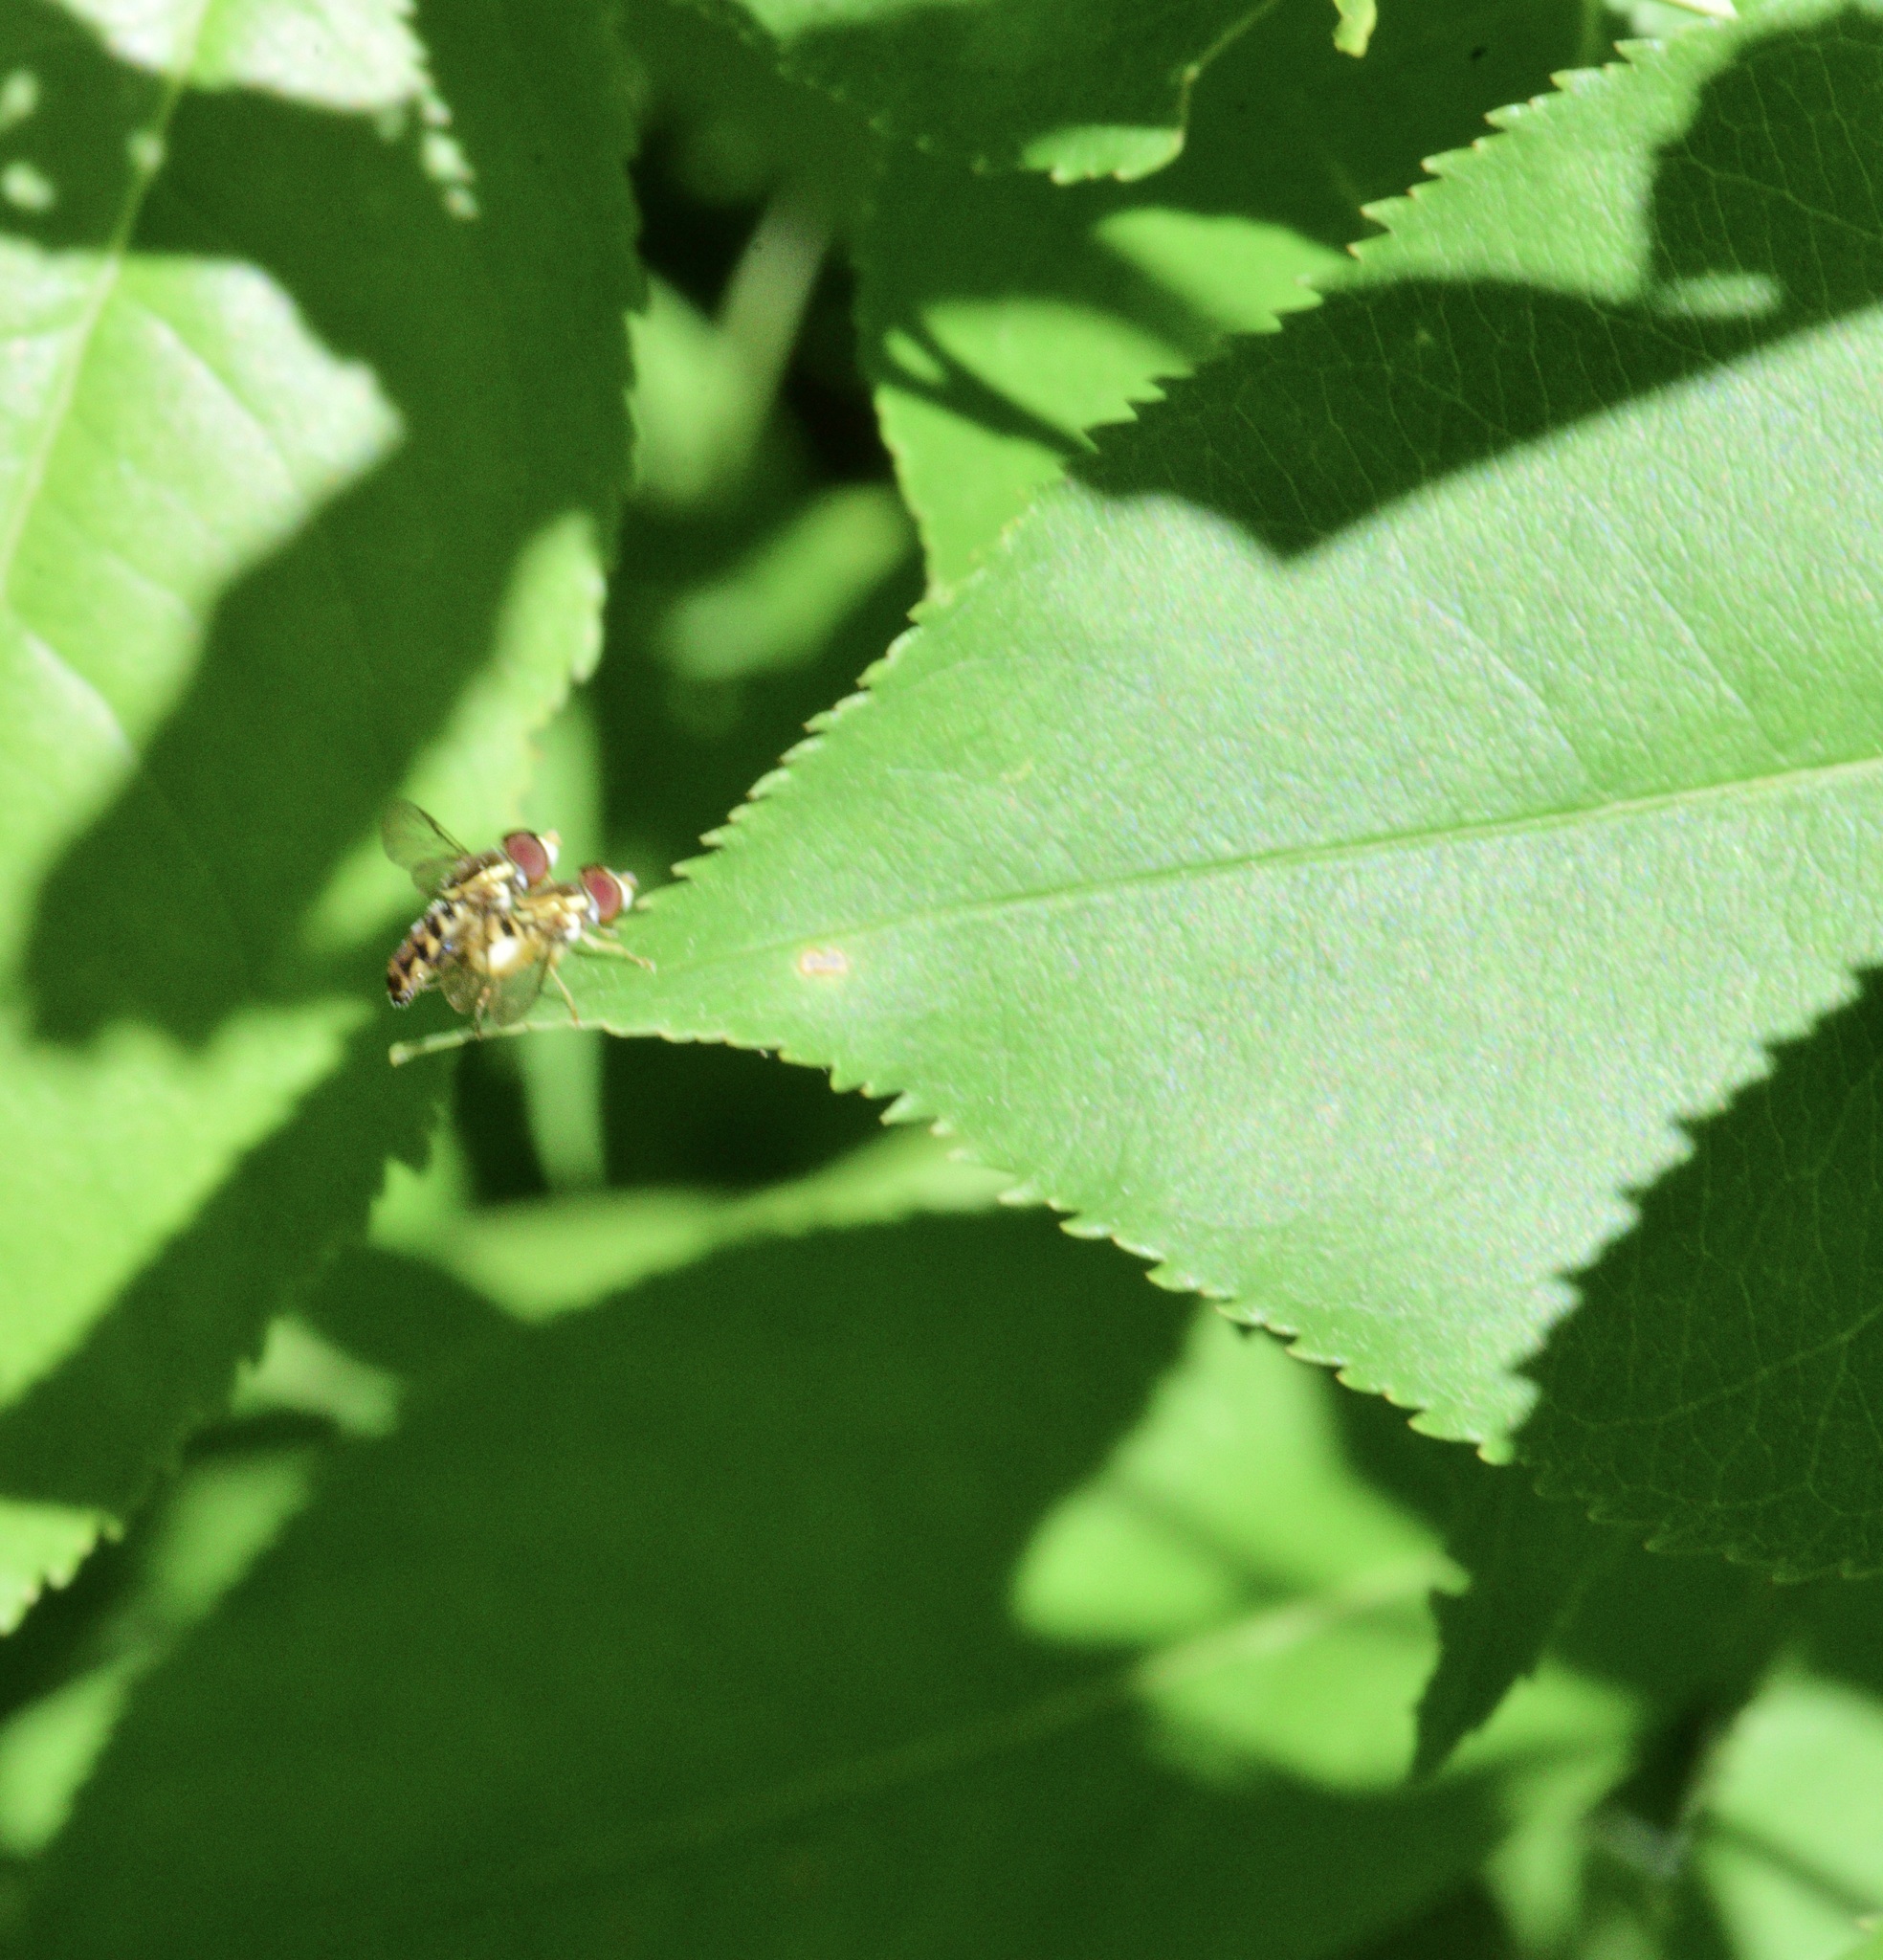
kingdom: Animalia
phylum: Arthropoda
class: Insecta
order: Diptera
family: Syrphidae
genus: Toxomerus
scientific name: Toxomerus geminatus
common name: Eastern calligrapher
